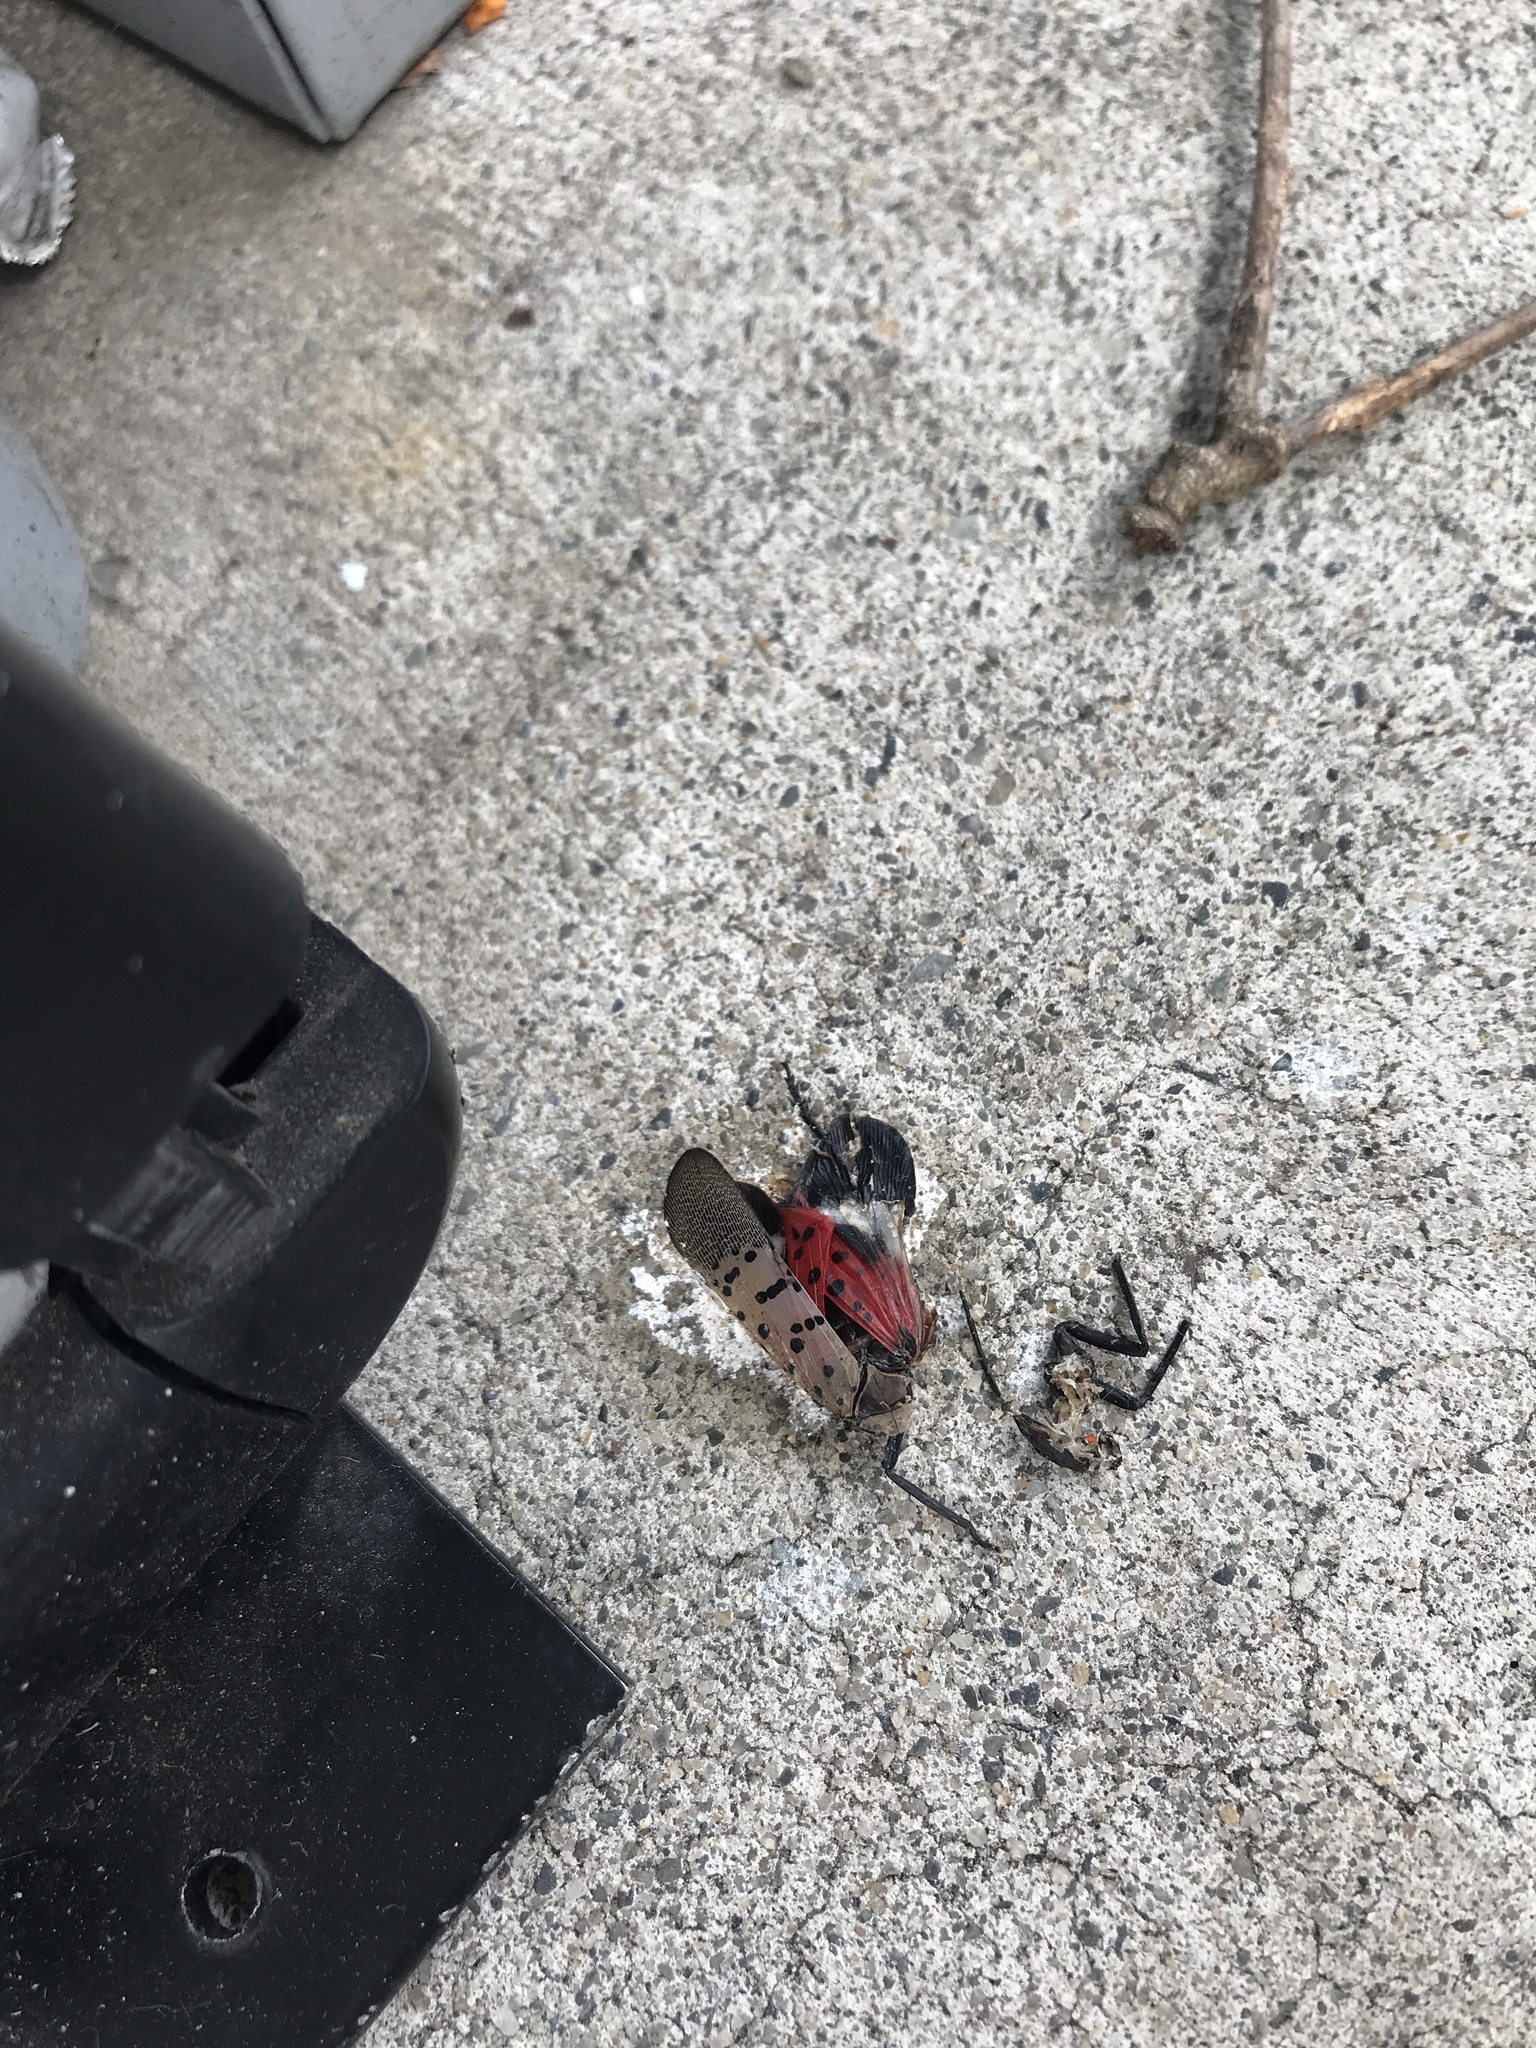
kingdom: Animalia
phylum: Arthropoda
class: Insecta
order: Hemiptera
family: Fulgoridae
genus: Lycorma
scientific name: Lycorma delicatula
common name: Spotted lanternfly
